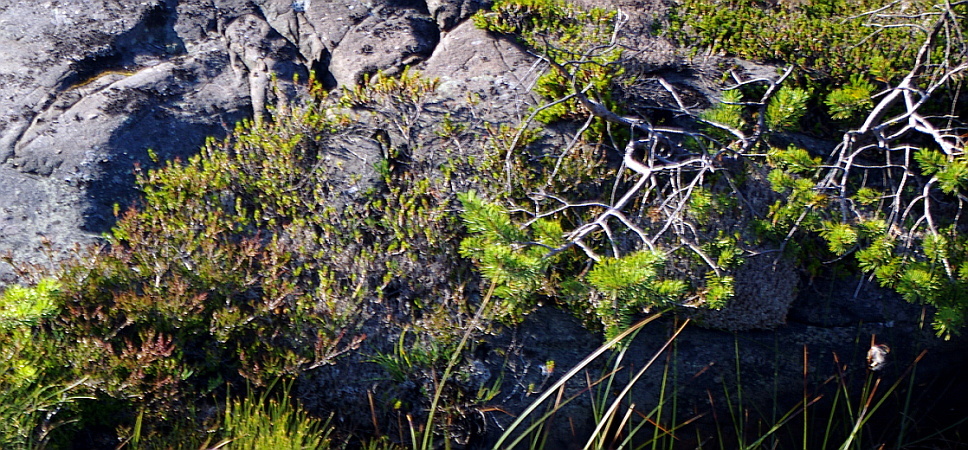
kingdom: Plantae
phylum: Tracheophyta
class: Pinopsida
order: Pinales
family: Pinaceae
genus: Pinus
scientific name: Pinus sylvestris
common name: Scots pine
